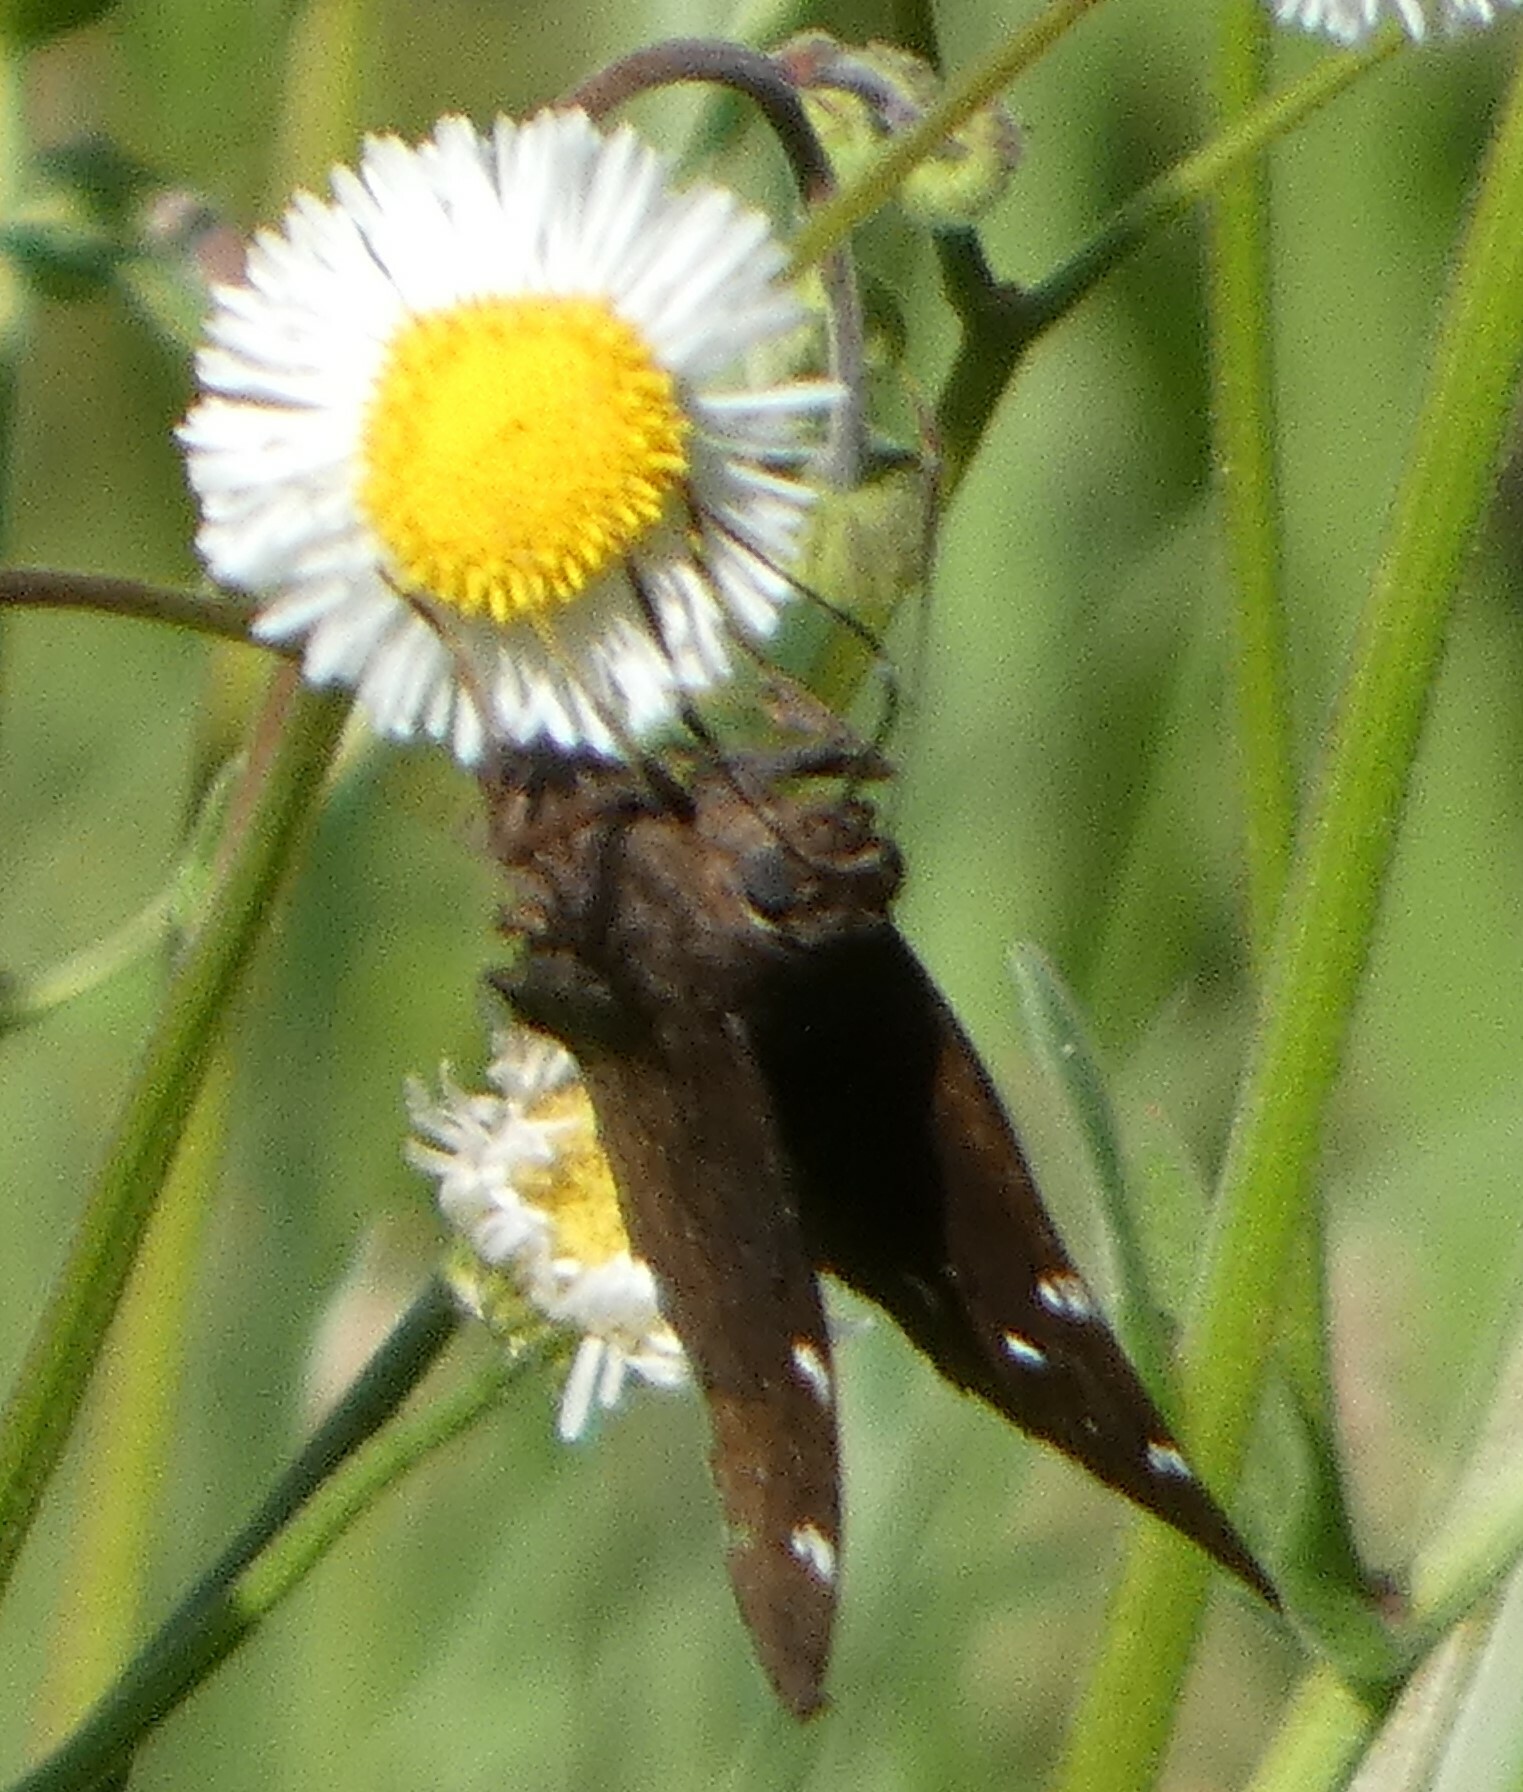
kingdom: Animalia
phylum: Arthropoda
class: Insecta
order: Lepidoptera
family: Hesperiidae
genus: Thorybes
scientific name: Thorybes pylades
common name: Northern cloudywing
